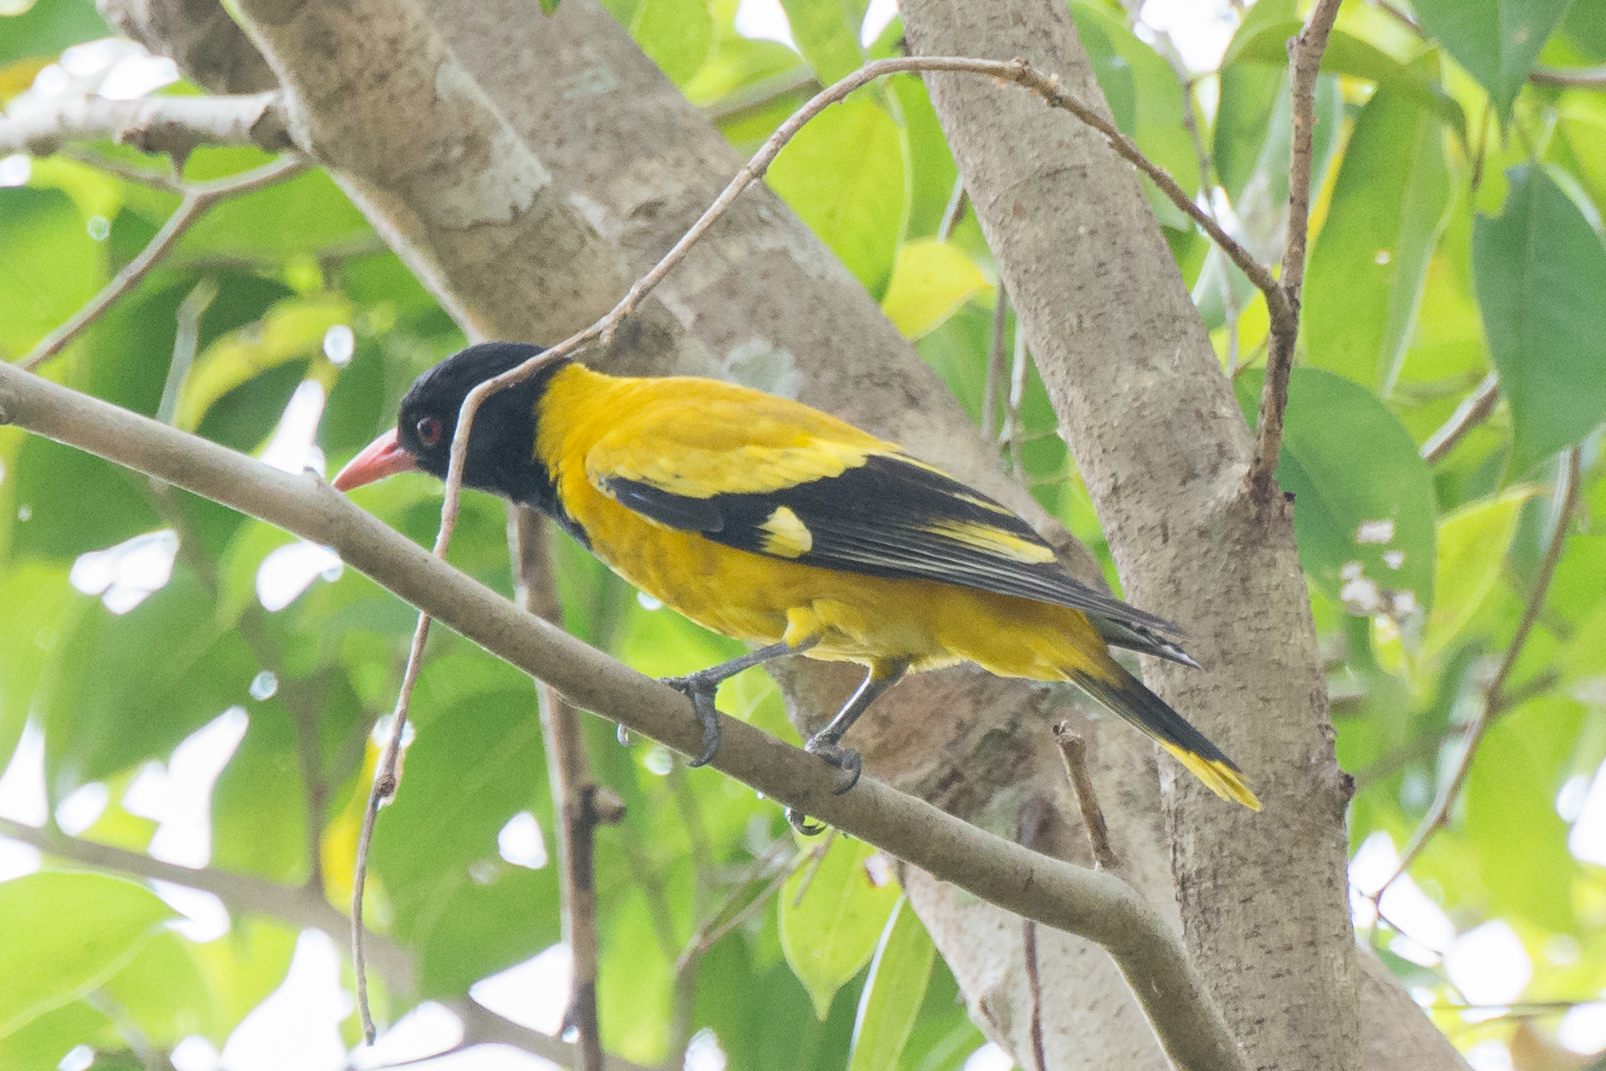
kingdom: Animalia
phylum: Chordata
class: Aves
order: Passeriformes
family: Oriolidae
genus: Oriolus
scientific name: Oriolus xanthornus
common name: Black-hooded oriole
